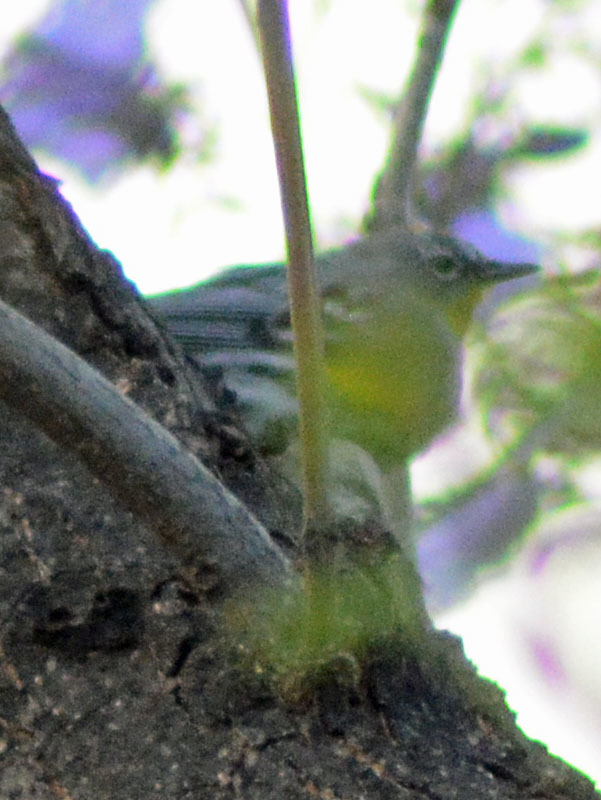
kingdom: Animalia
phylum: Chordata
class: Aves
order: Passeriformes
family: Parulidae
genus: Setophaga
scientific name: Setophaga auduboni
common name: Audubon's warbler
